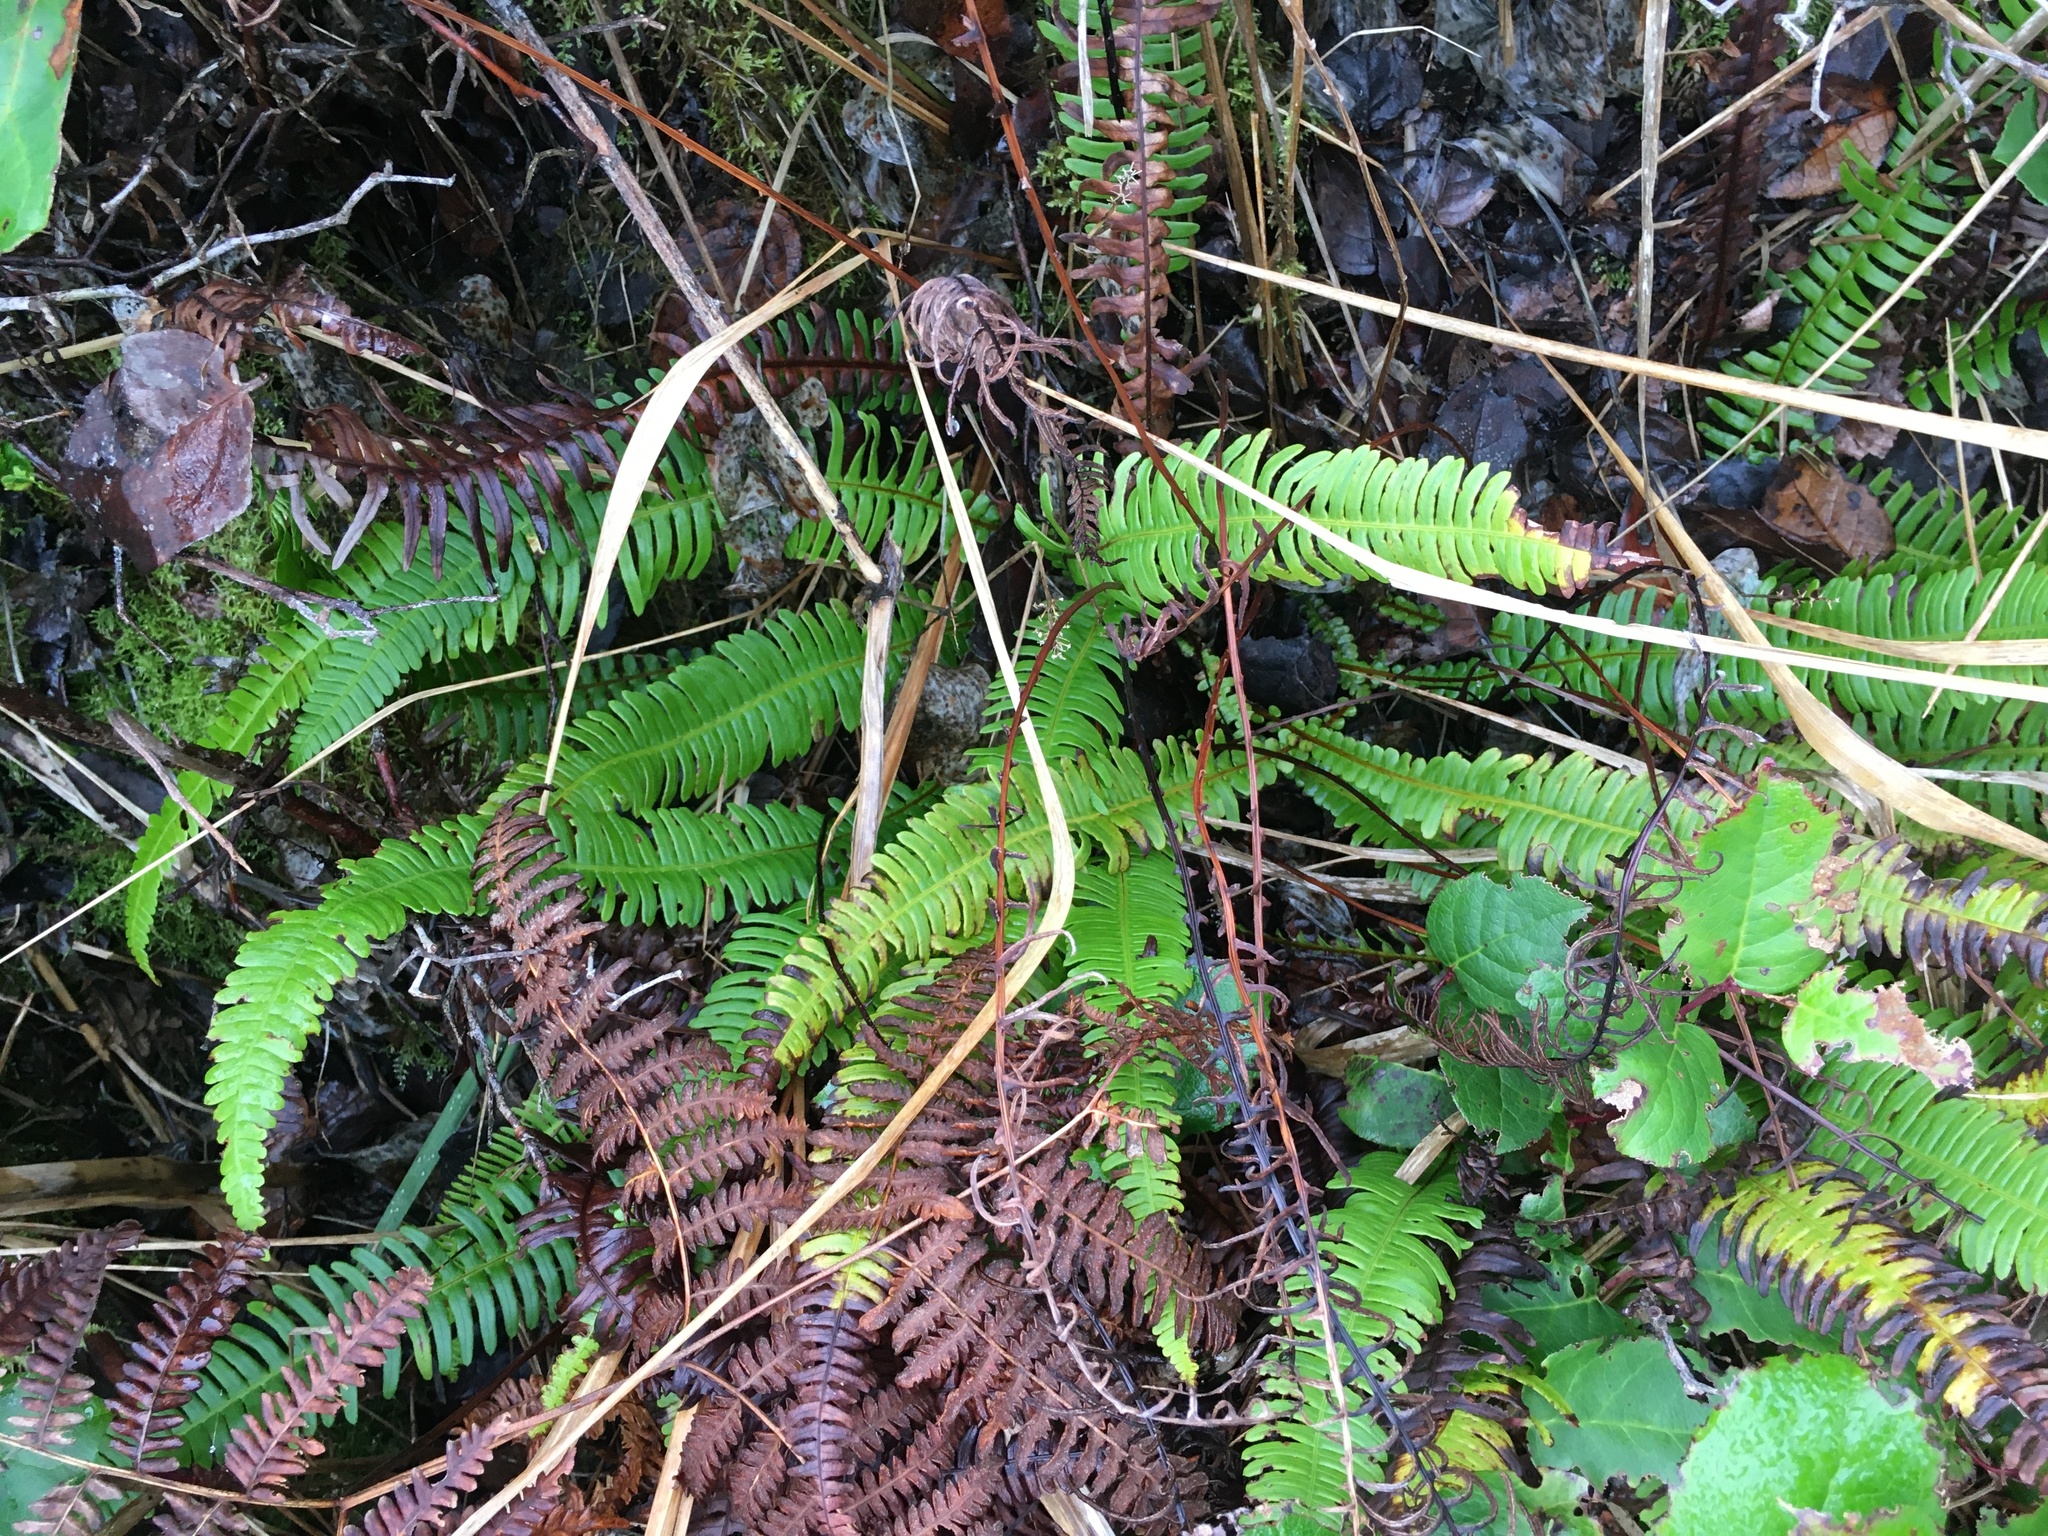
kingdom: Plantae
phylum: Tracheophyta
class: Polypodiopsida
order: Polypodiales
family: Blechnaceae
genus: Struthiopteris
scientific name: Struthiopteris spicant
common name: Deer fern
